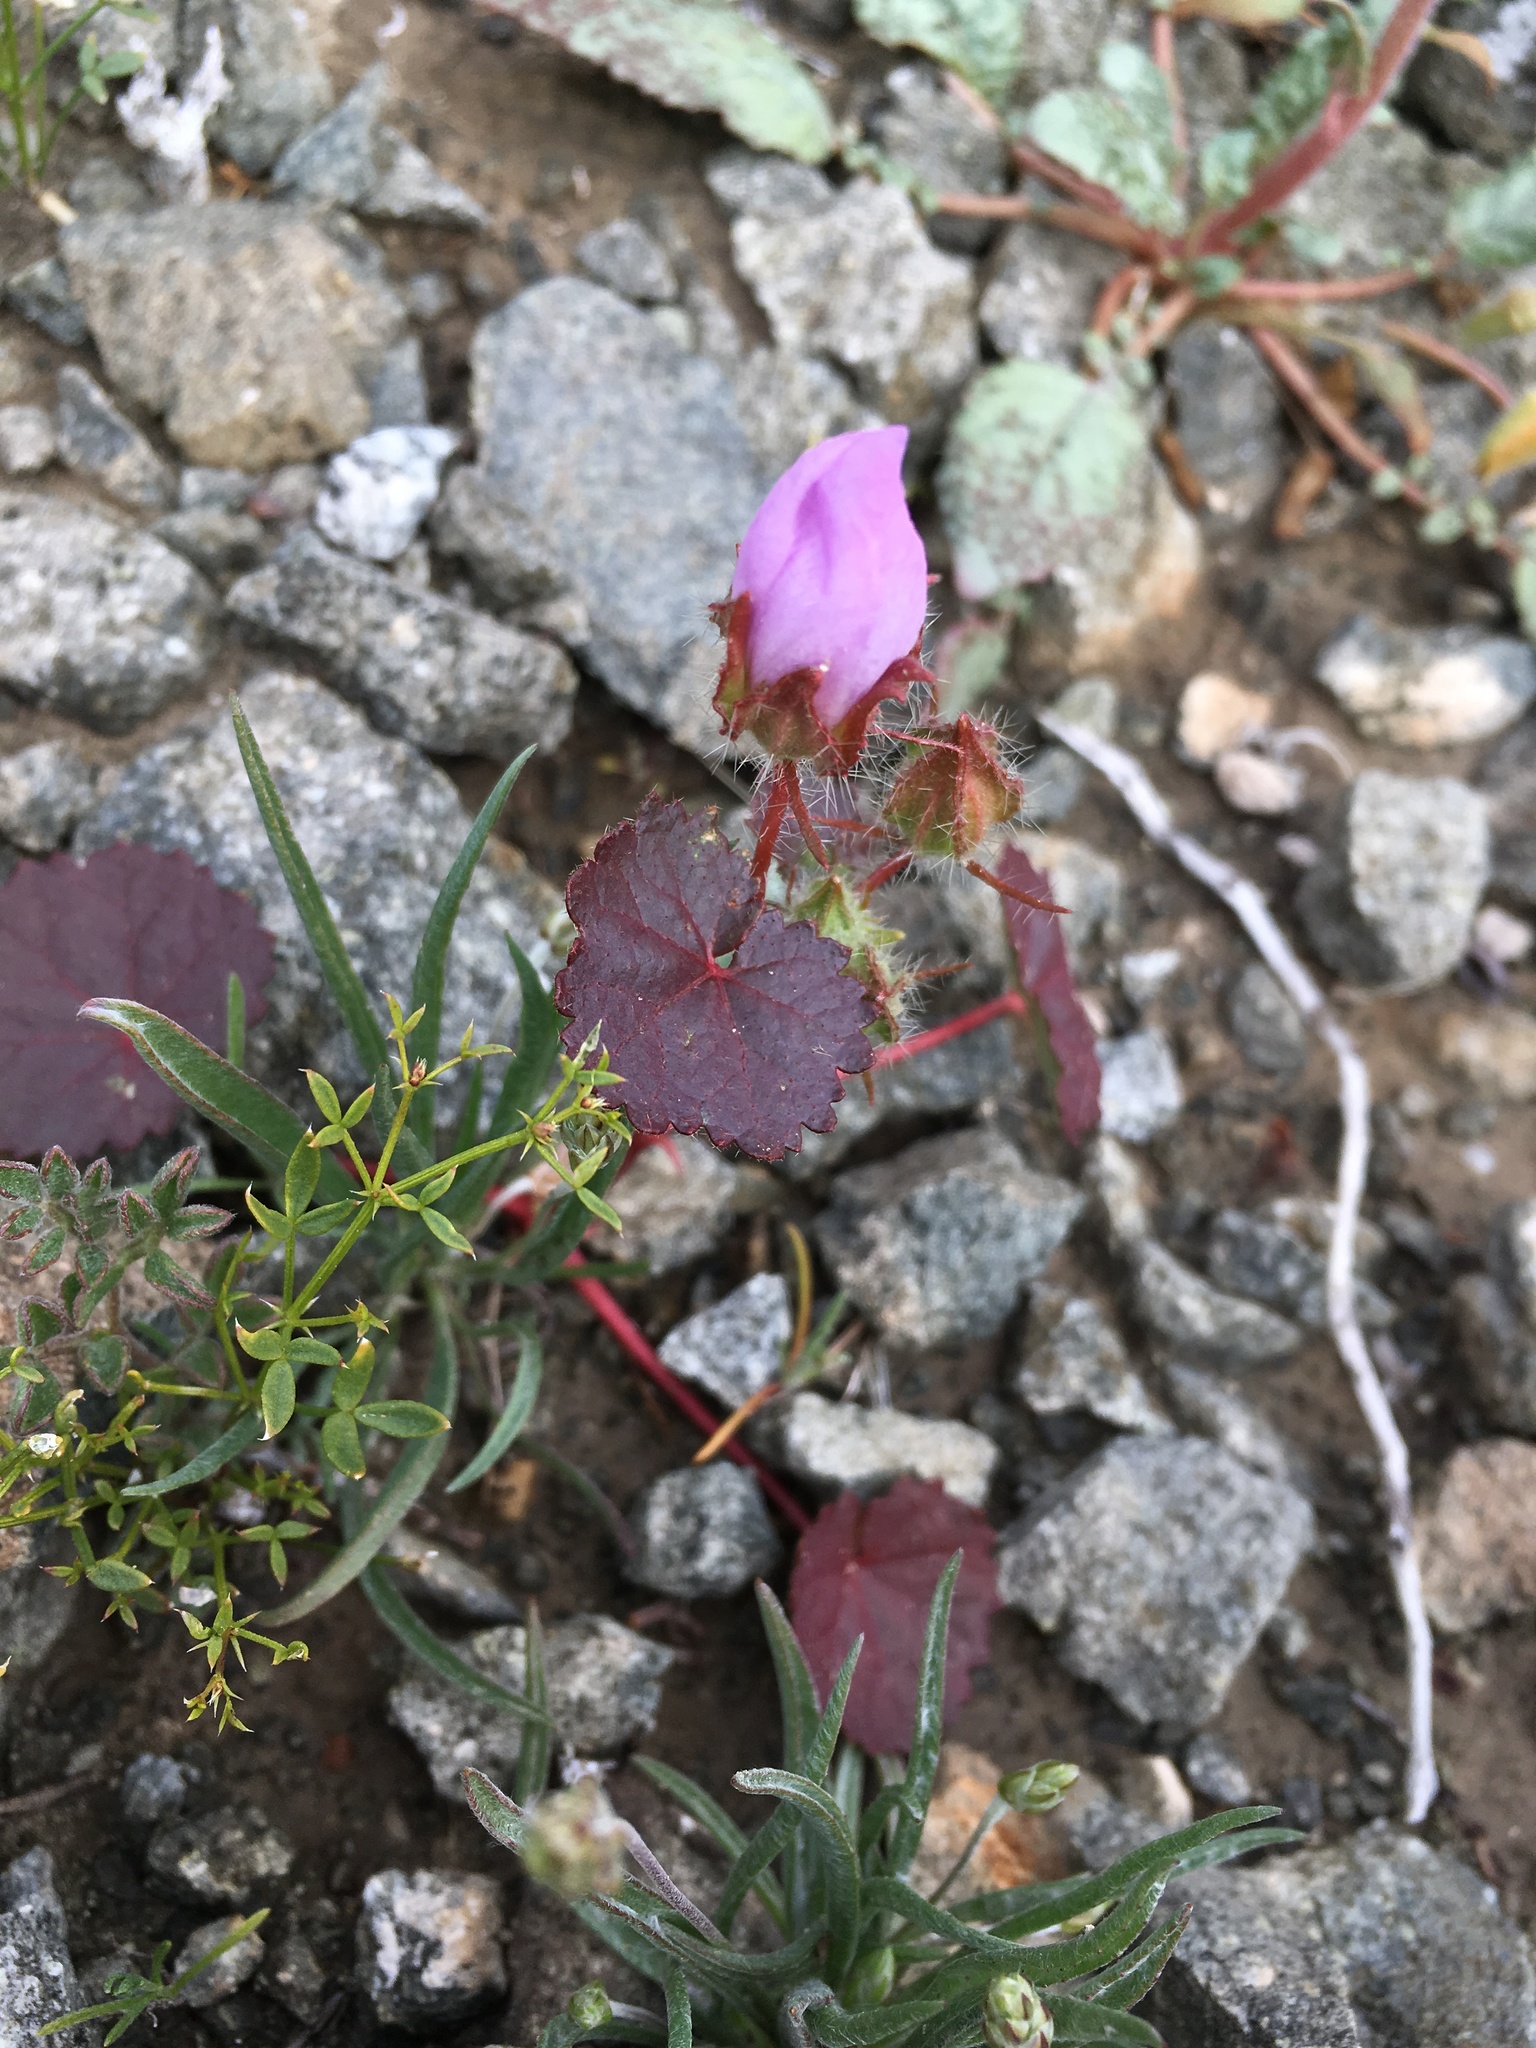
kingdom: Plantae
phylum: Tracheophyta
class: Magnoliopsida
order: Malvales
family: Malvaceae
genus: Eremalche
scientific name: Eremalche rotundifolia
